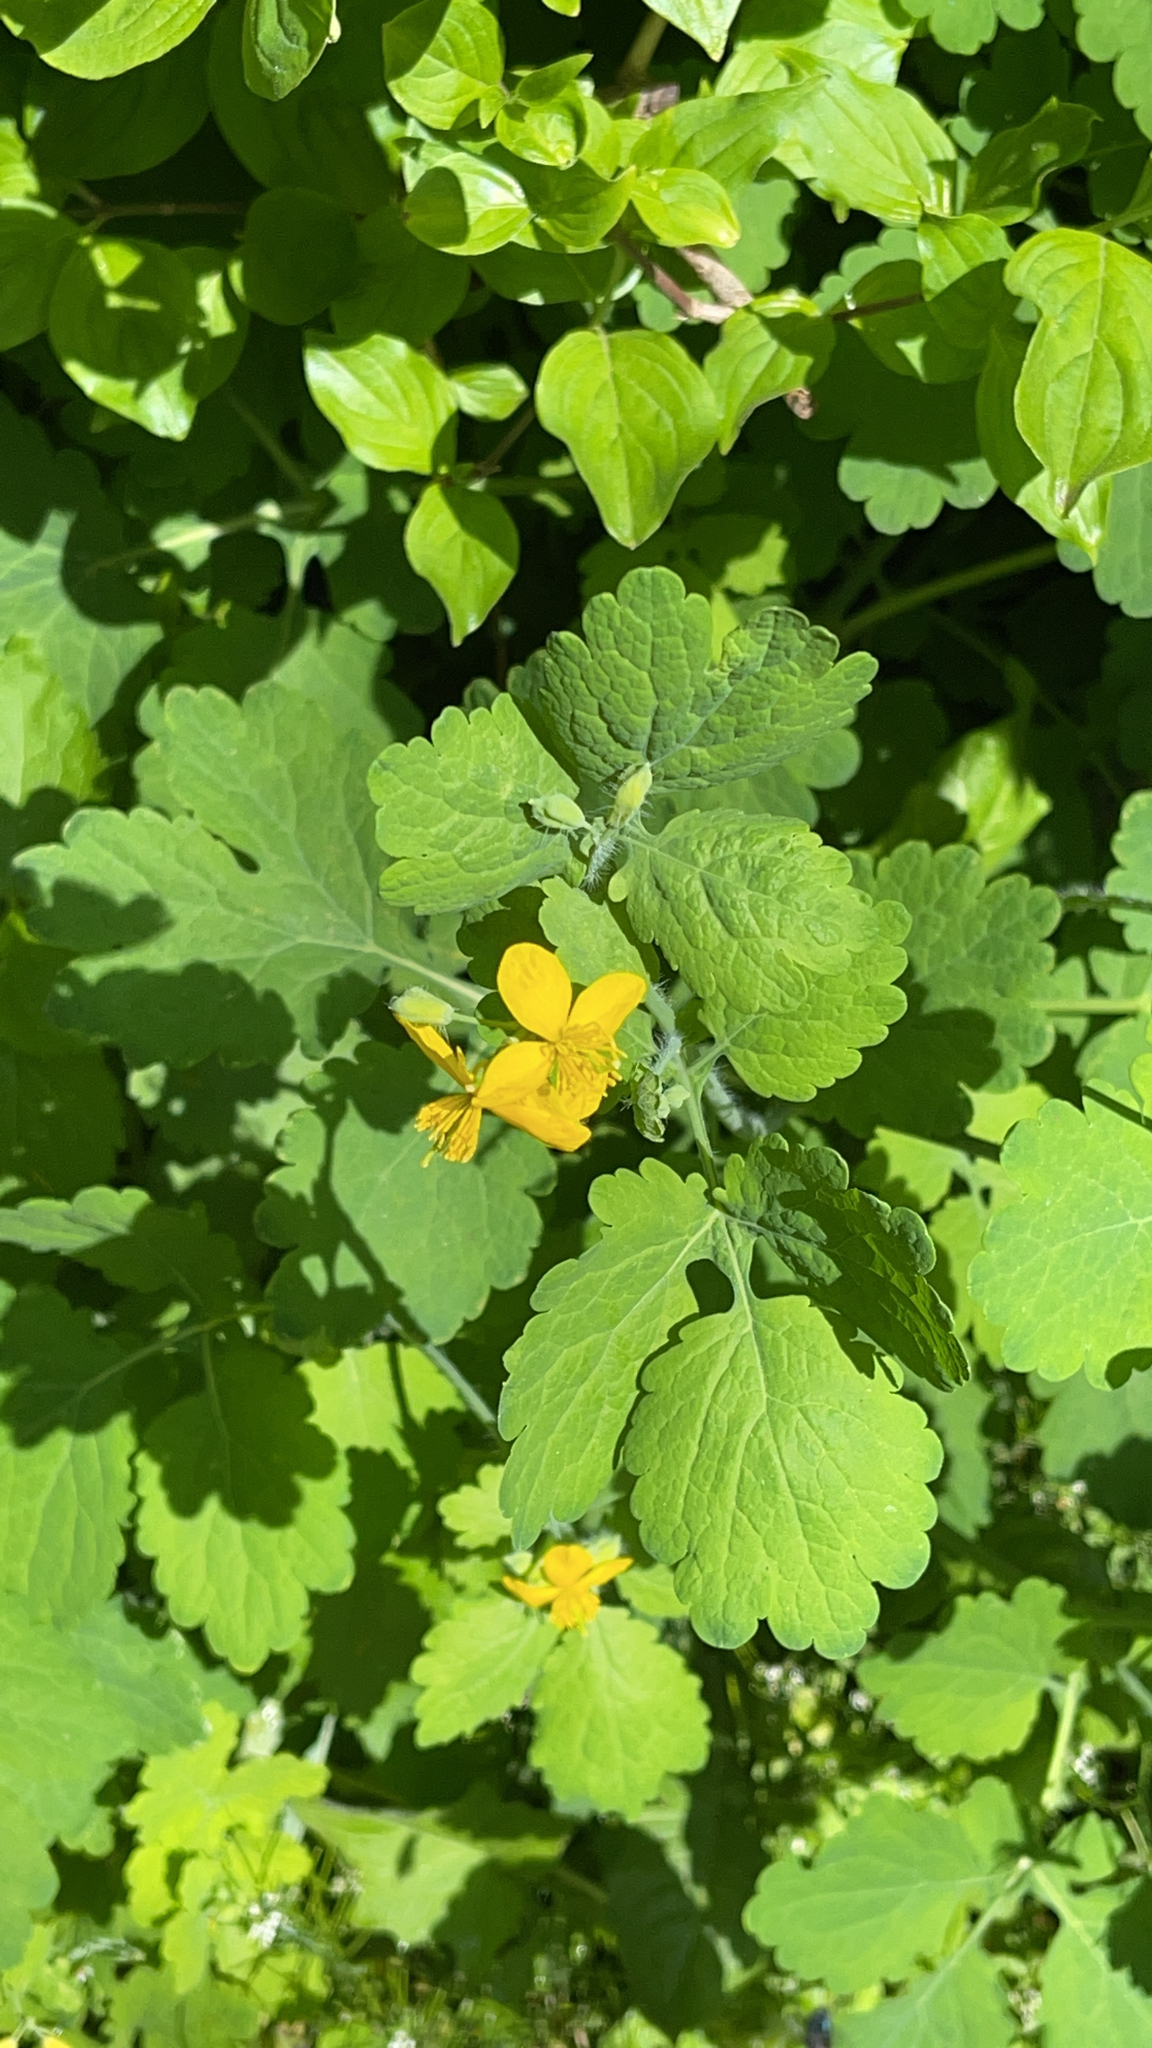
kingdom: Plantae
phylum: Tracheophyta
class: Magnoliopsida
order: Ranunculales
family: Papaveraceae
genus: Chelidonium
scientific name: Chelidonium majus
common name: Greater celandine
